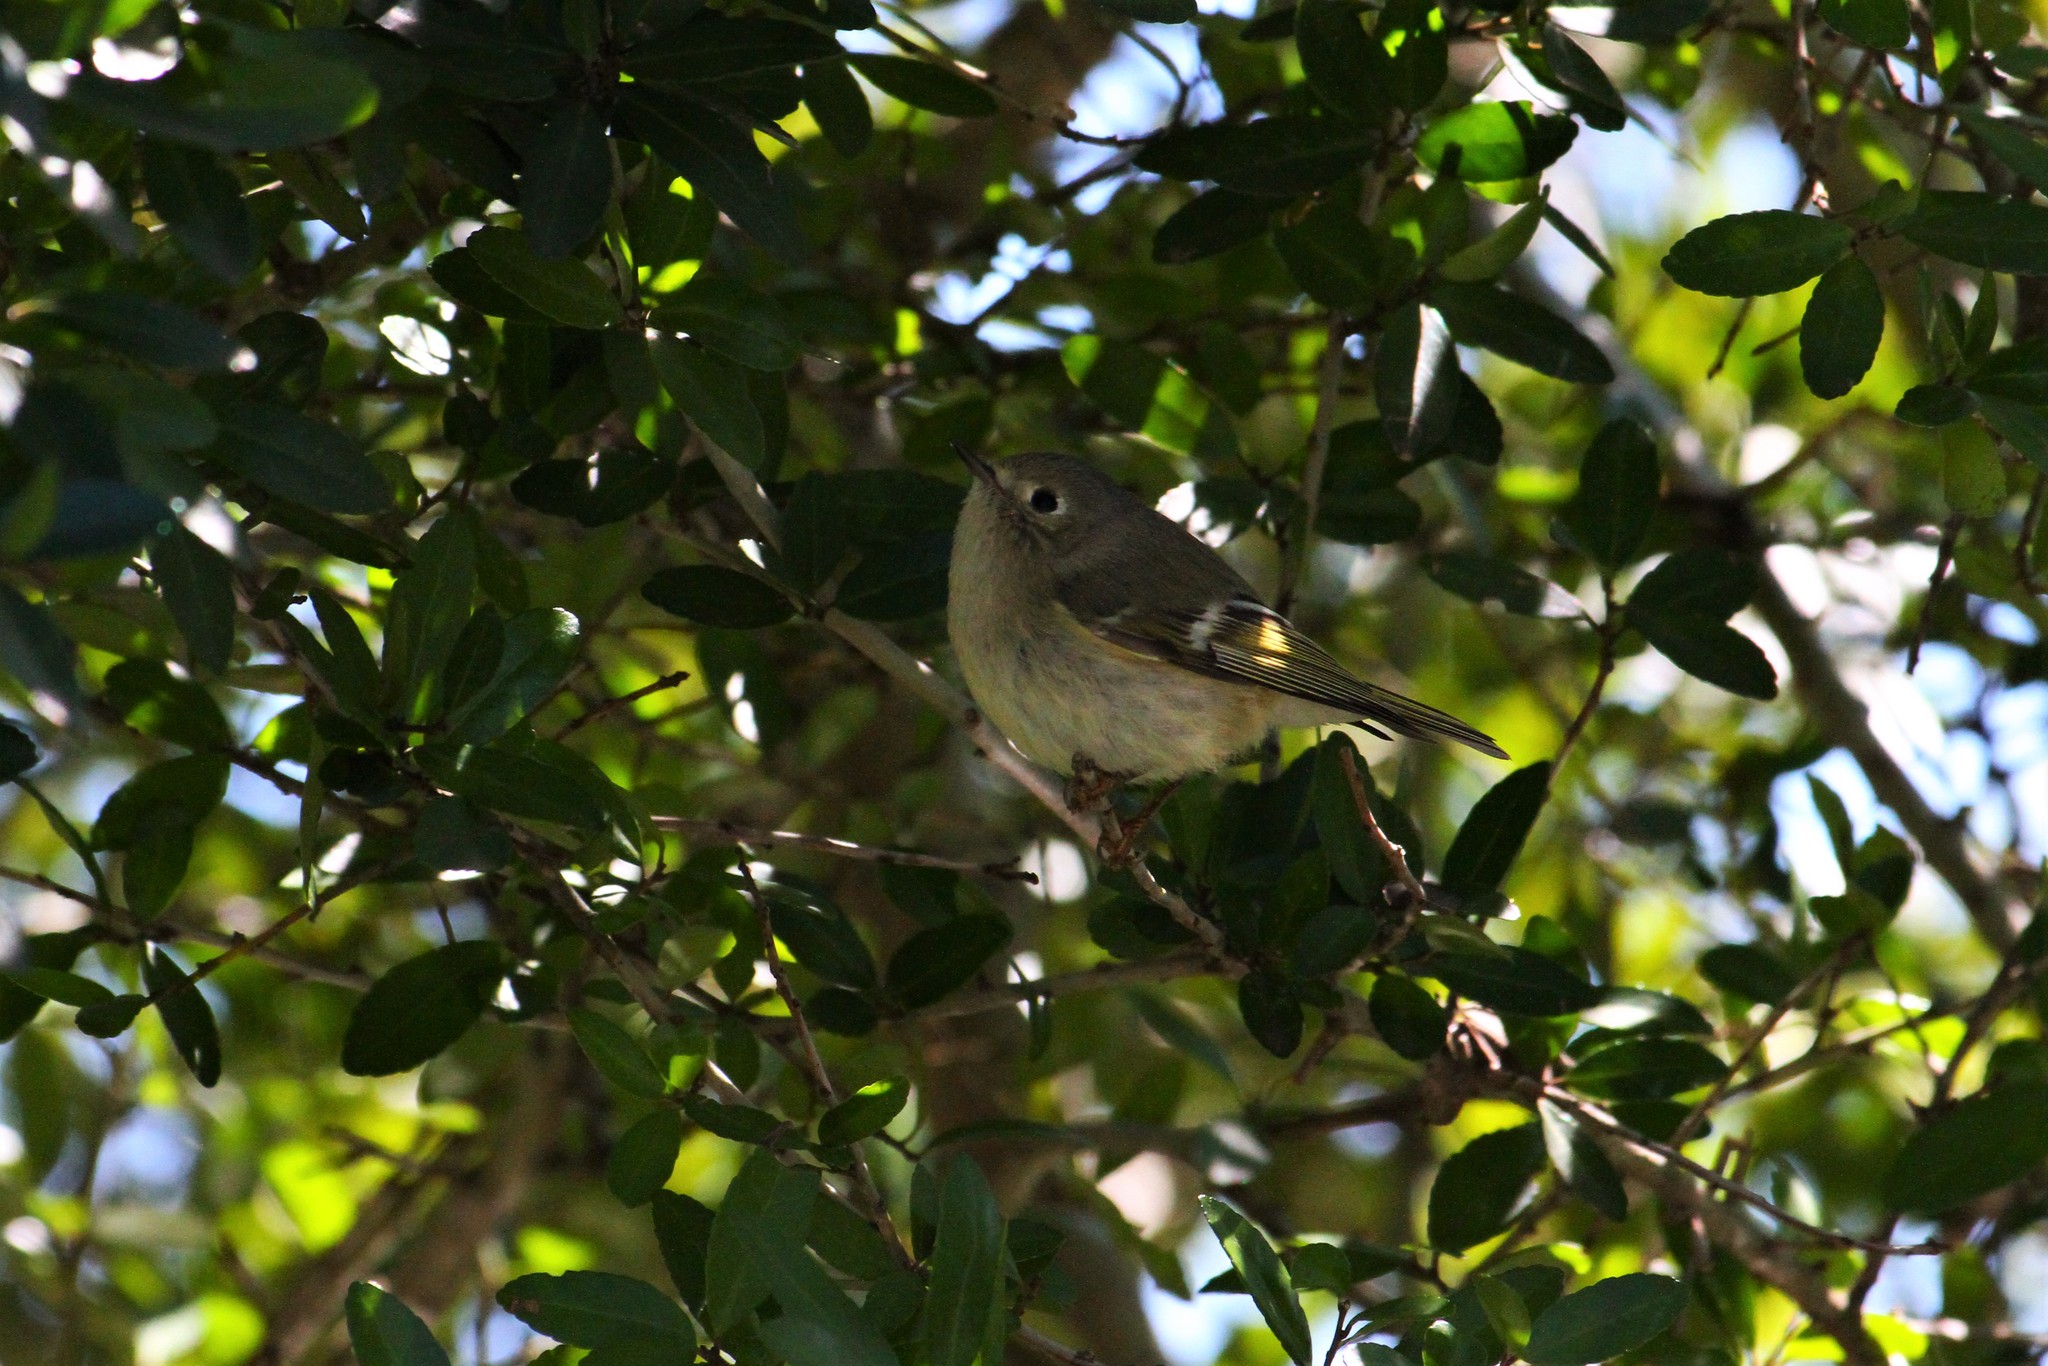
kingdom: Animalia
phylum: Chordata
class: Aves
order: Passeriformes
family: Regulidae
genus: Regulus
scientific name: Regulus calendula
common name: Ruby-crowned kinglet
